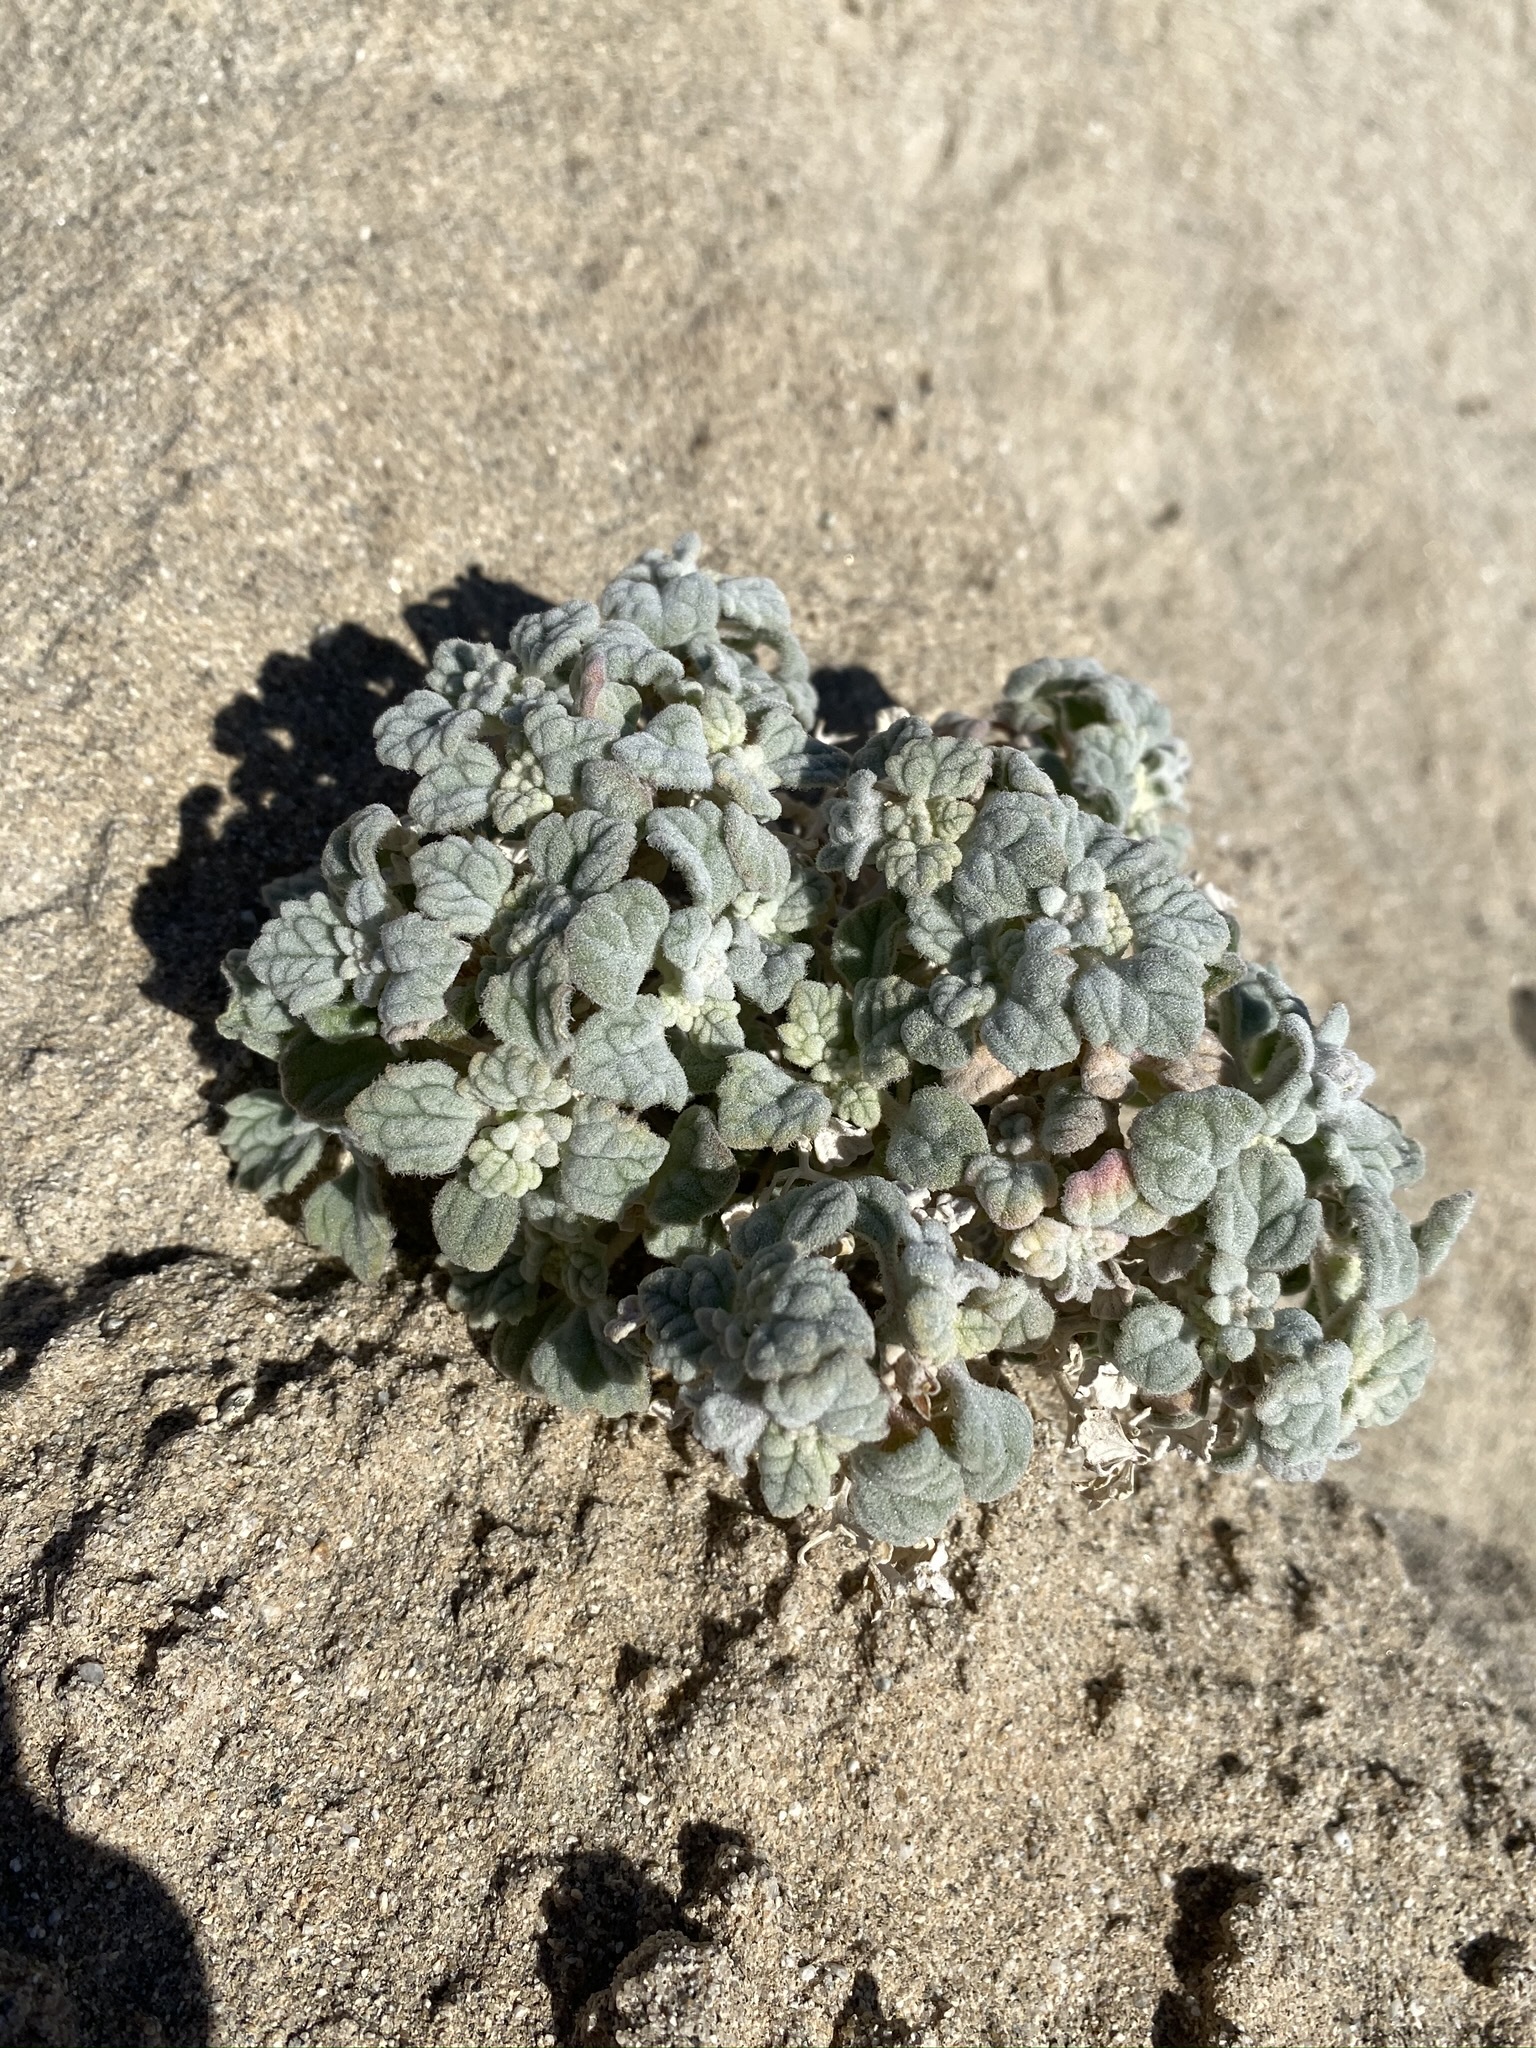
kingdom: Plantae
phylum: Tracheophyta
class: Magnoliopsida
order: Asterales
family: Asteraceae
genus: Psathyrotes
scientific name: Psathyrotes ramosissima
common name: Turtleback
